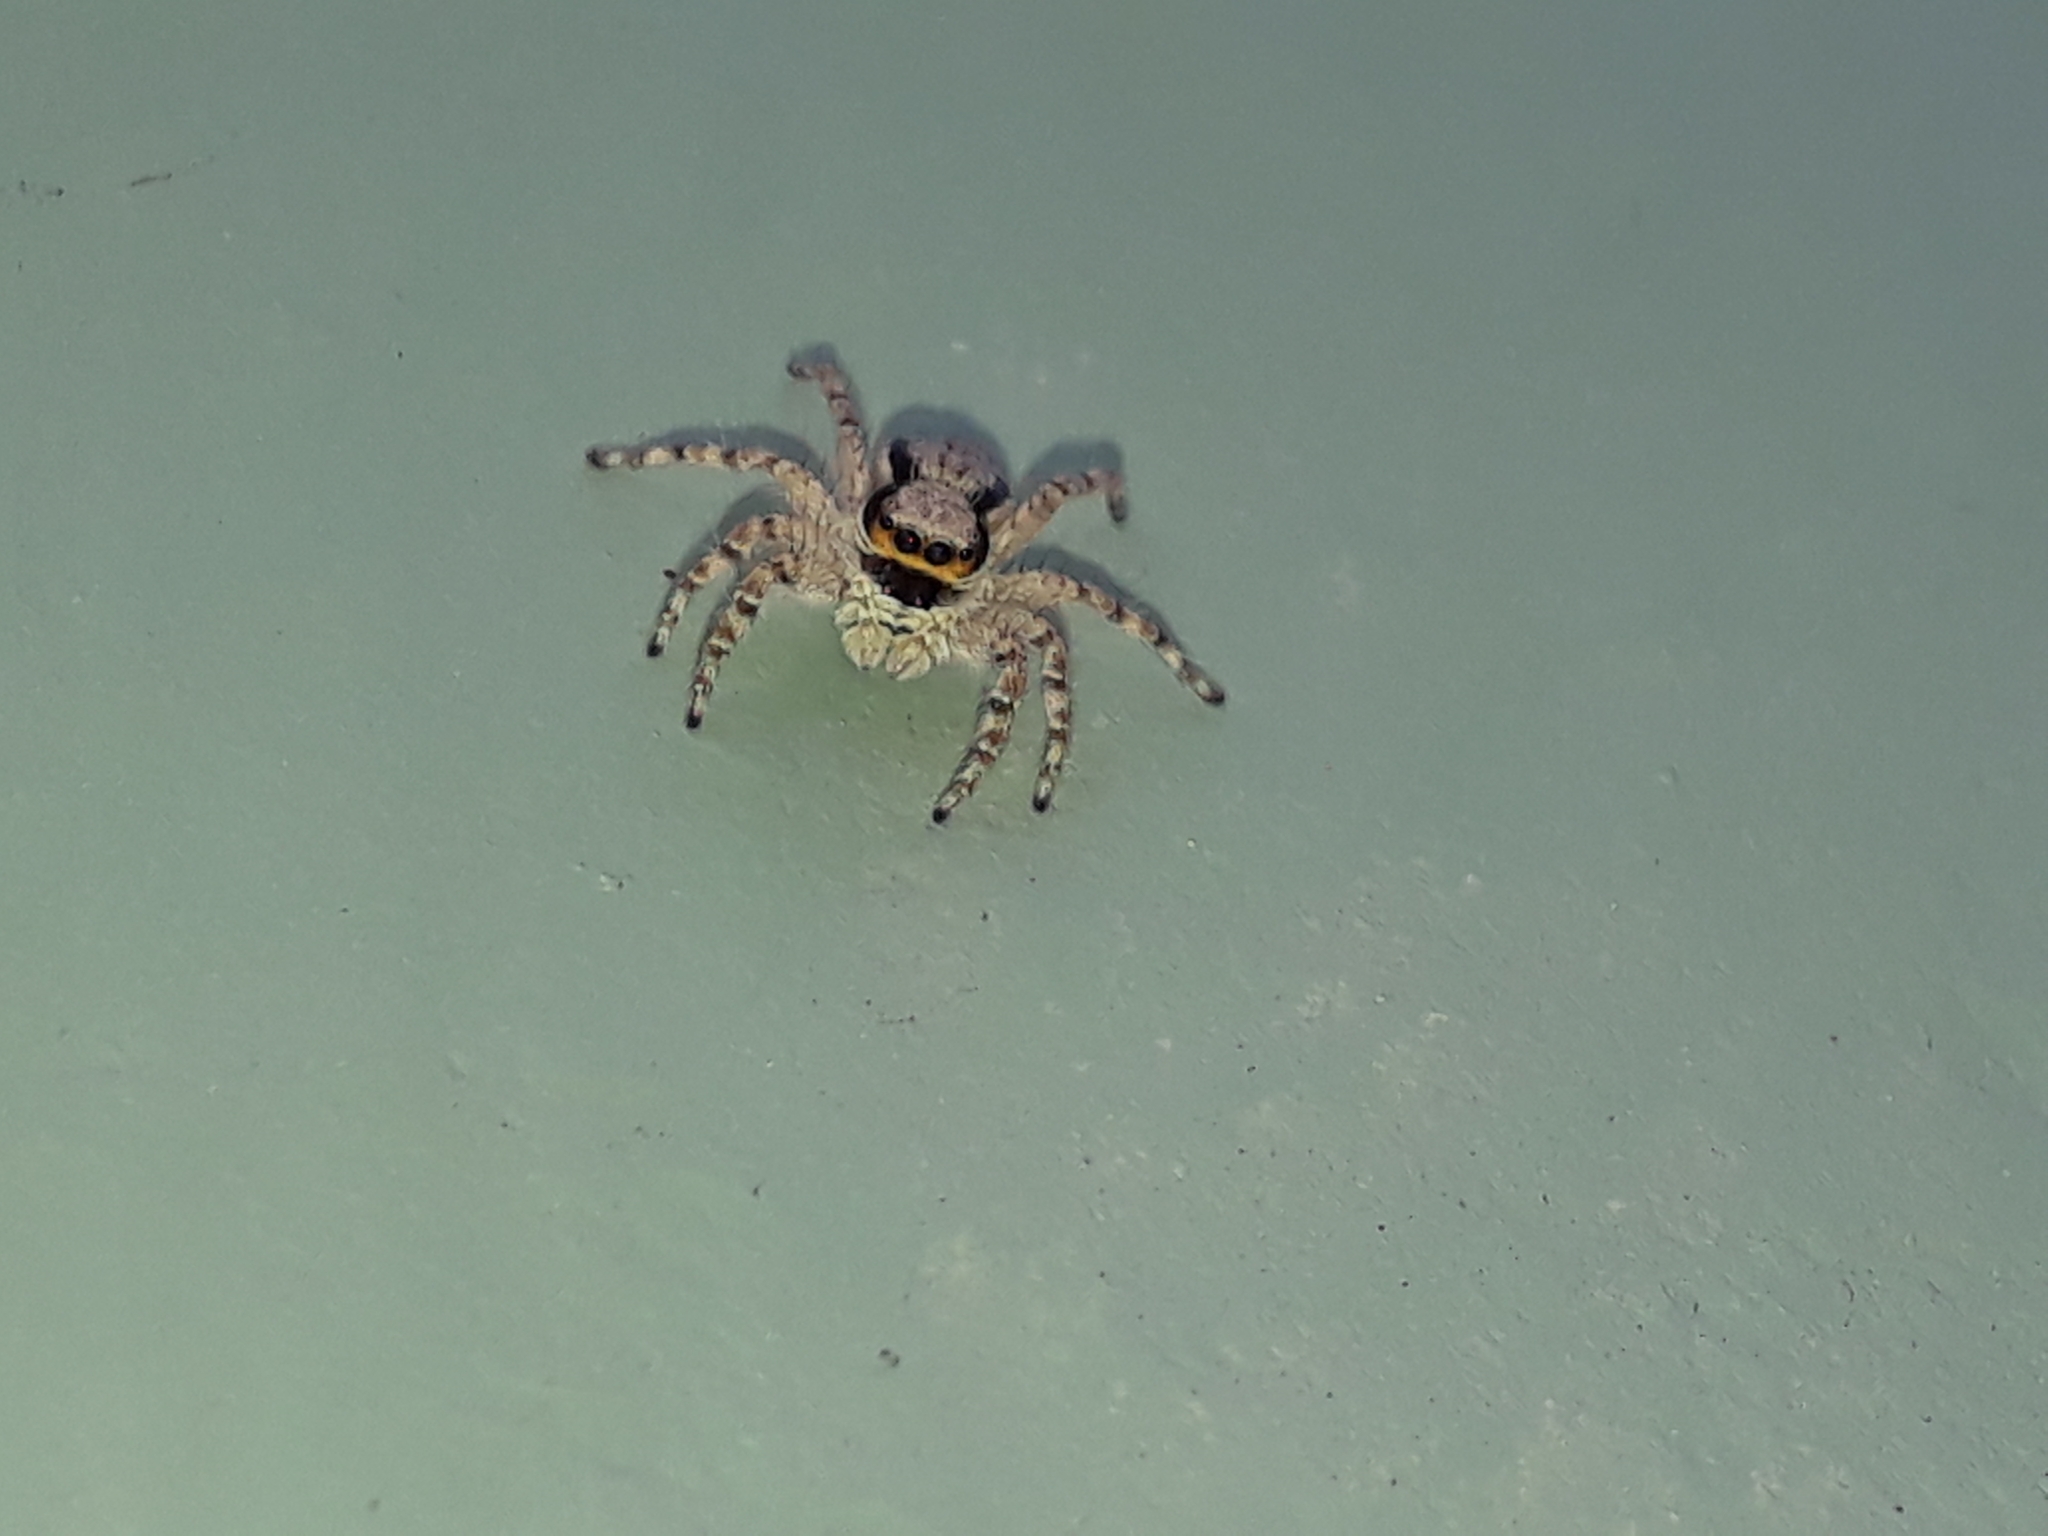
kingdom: Animalia
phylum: Arthropoda
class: Arachnida
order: Araneae
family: Salticidae
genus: Menemerus
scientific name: Menemerus bivittatus
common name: Gray wall jumper
